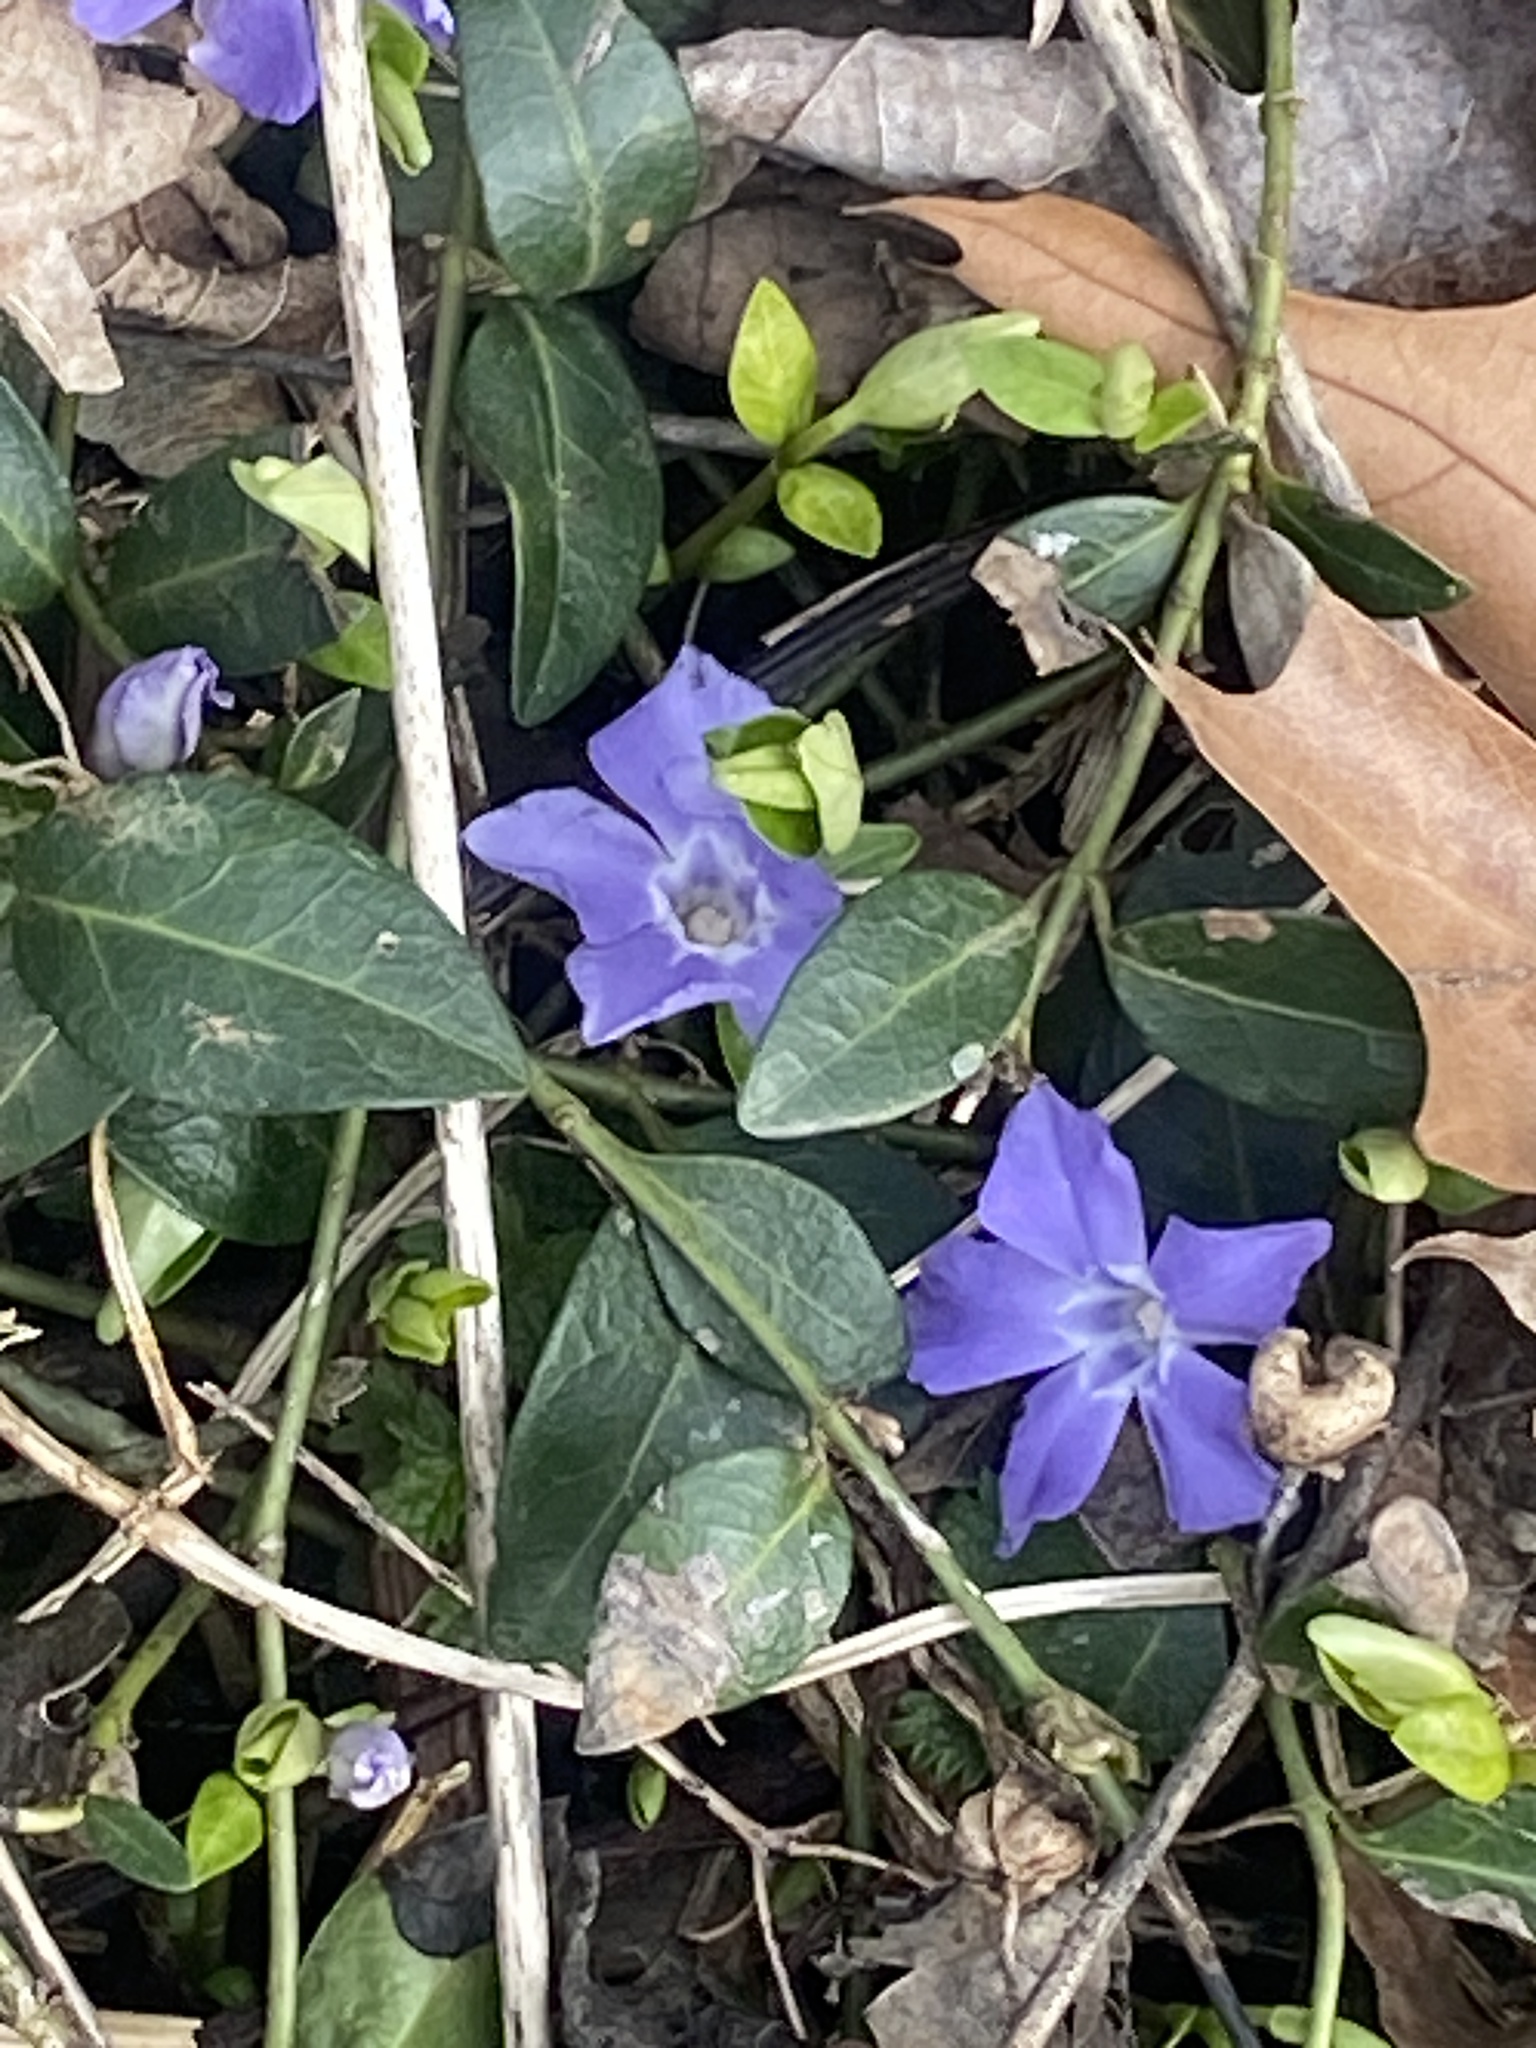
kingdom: Plantae
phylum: Tracheophyta
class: Magnoliopsida
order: Gentianales
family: Apocynaceae
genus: Vinca
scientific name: Vinca minor
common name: Lesser periwinkle
